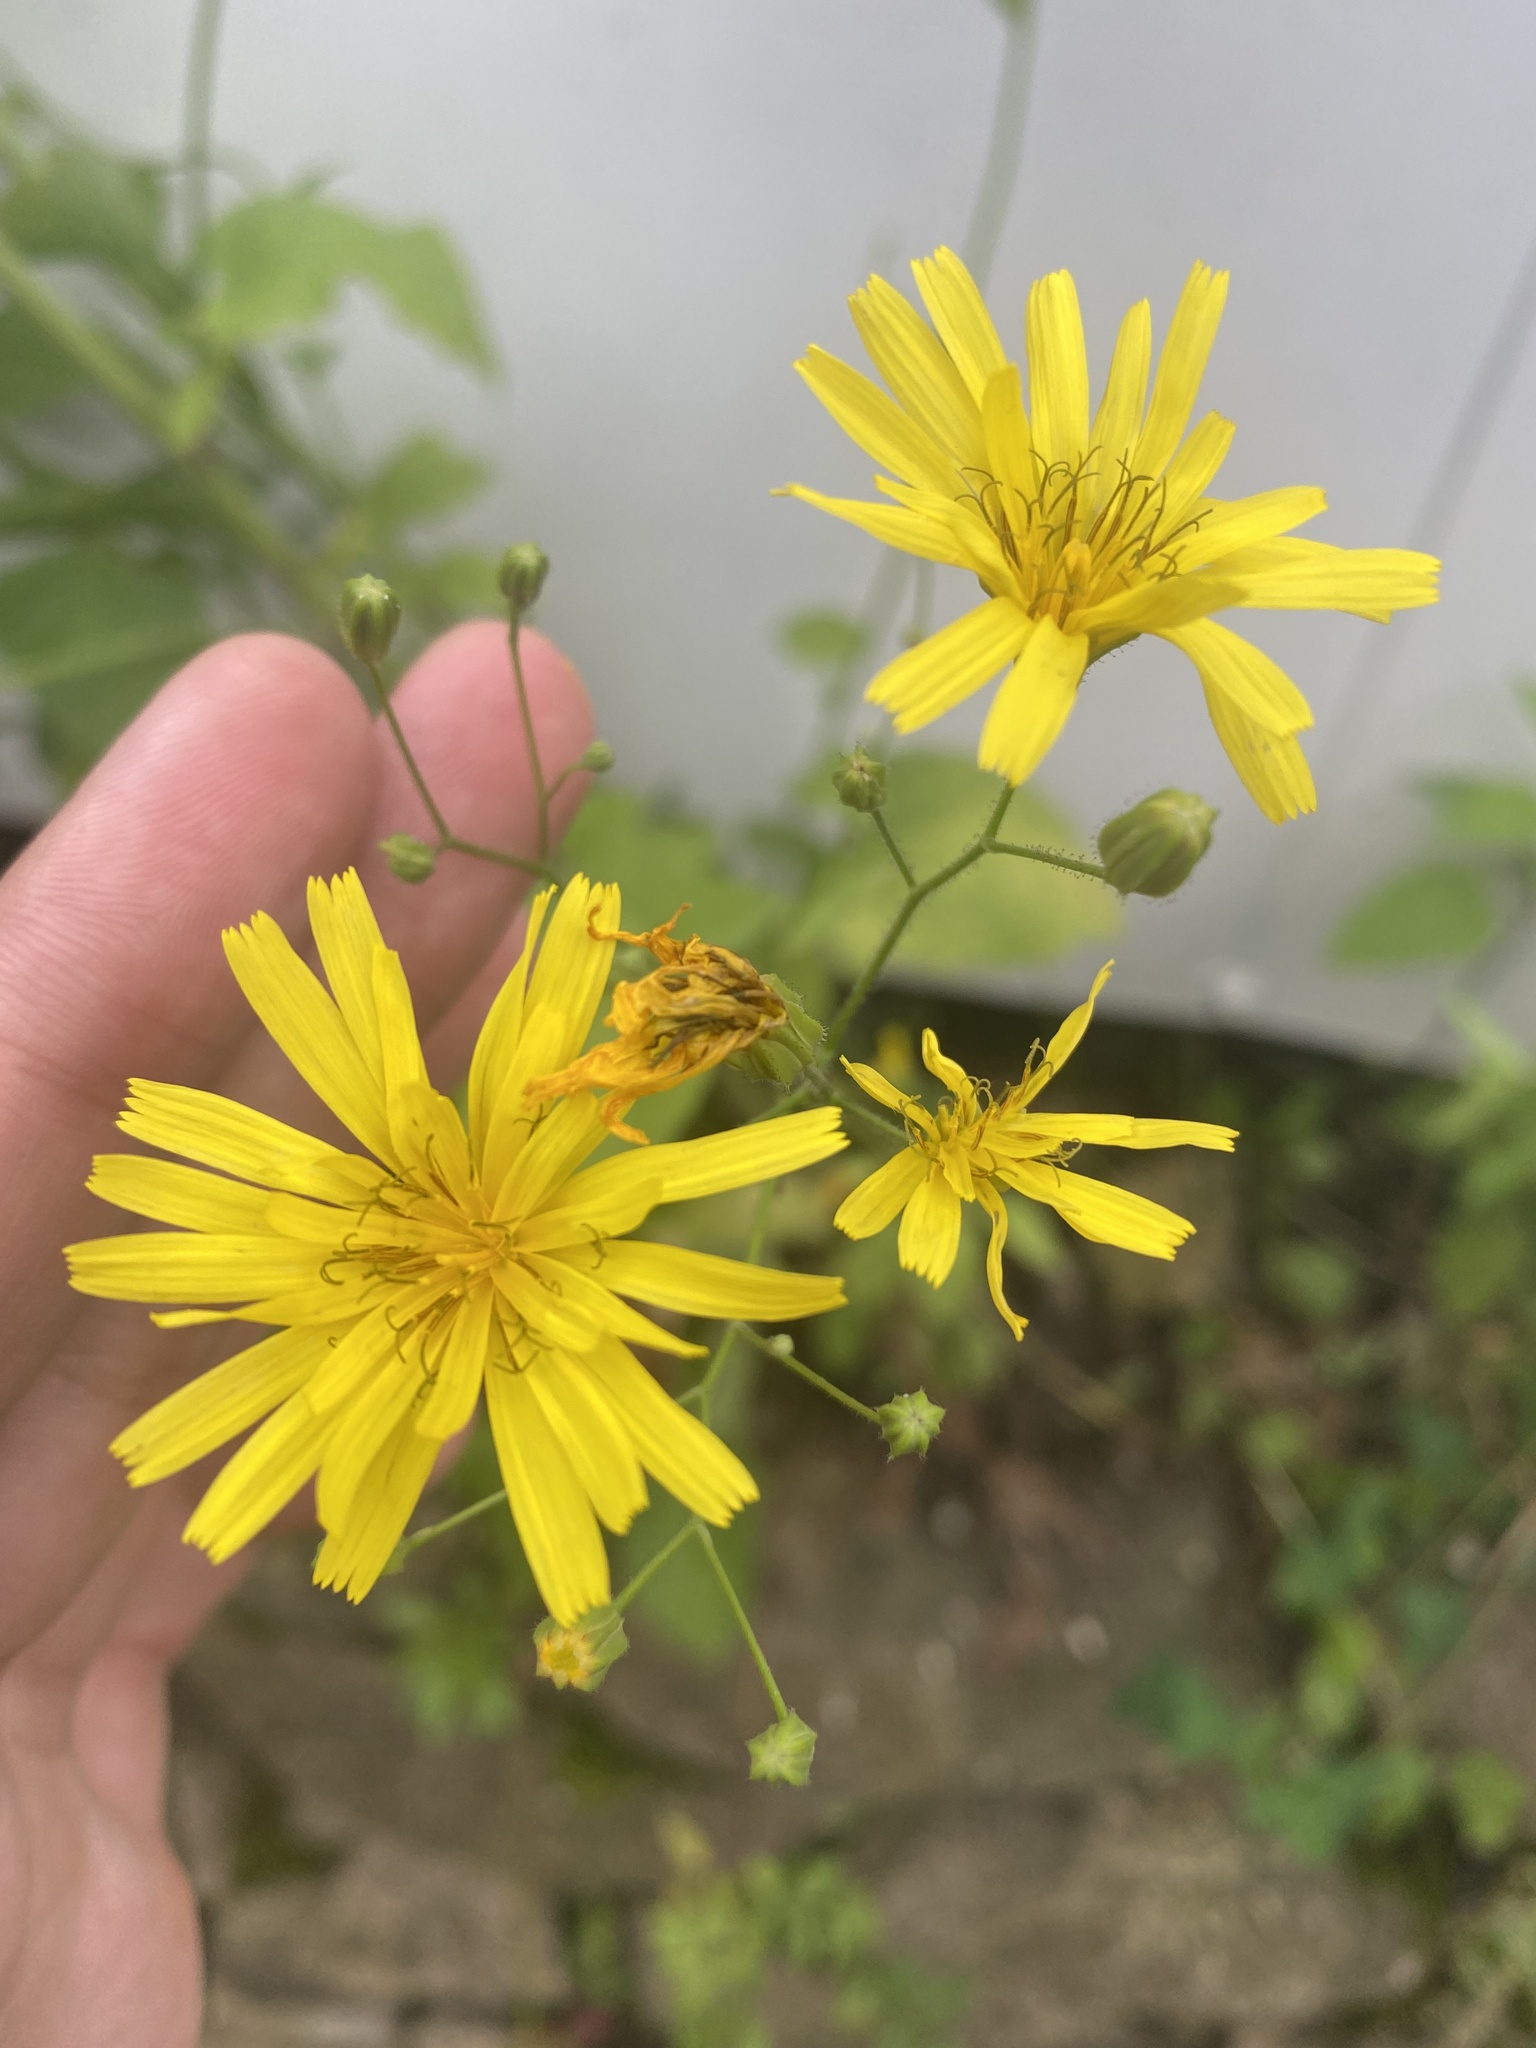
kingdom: Plantae
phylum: Tracheophyta
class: Magnoliopsida
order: Asterales
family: Asteraceae
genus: Lapsana
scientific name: Lapsana communis
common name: Nipplewort
